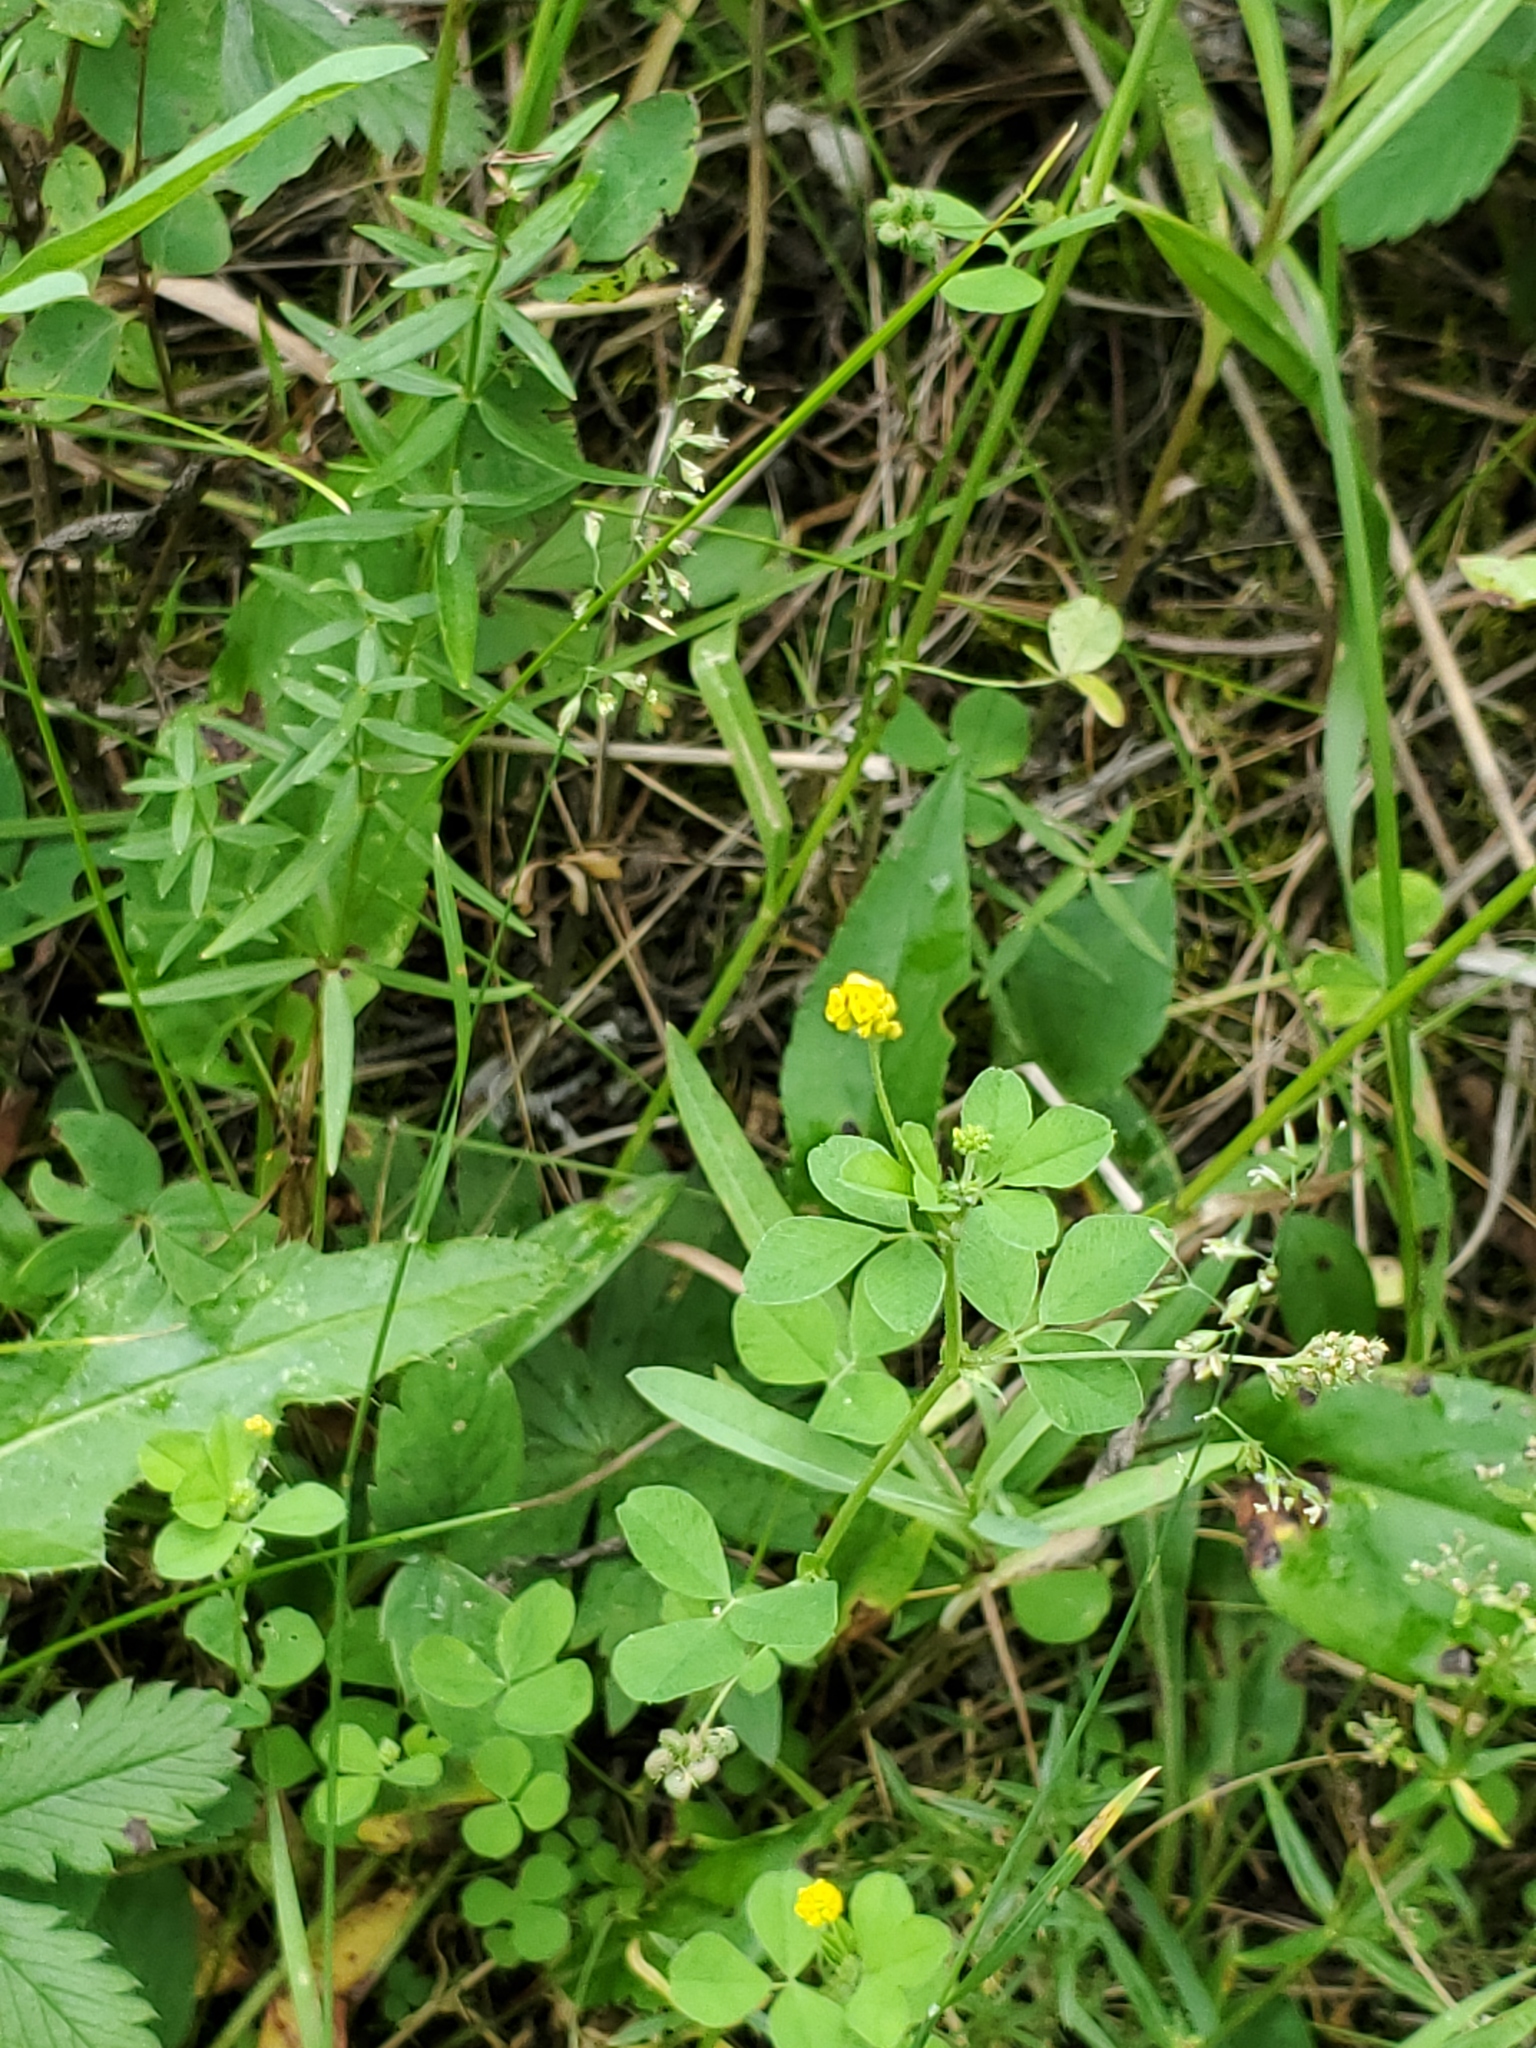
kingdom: Plantae
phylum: Tracheophyta
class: Magnoliopsida
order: Fabales
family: Fabaceae
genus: Medicago
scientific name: Medicago lupulina
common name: Black medick
